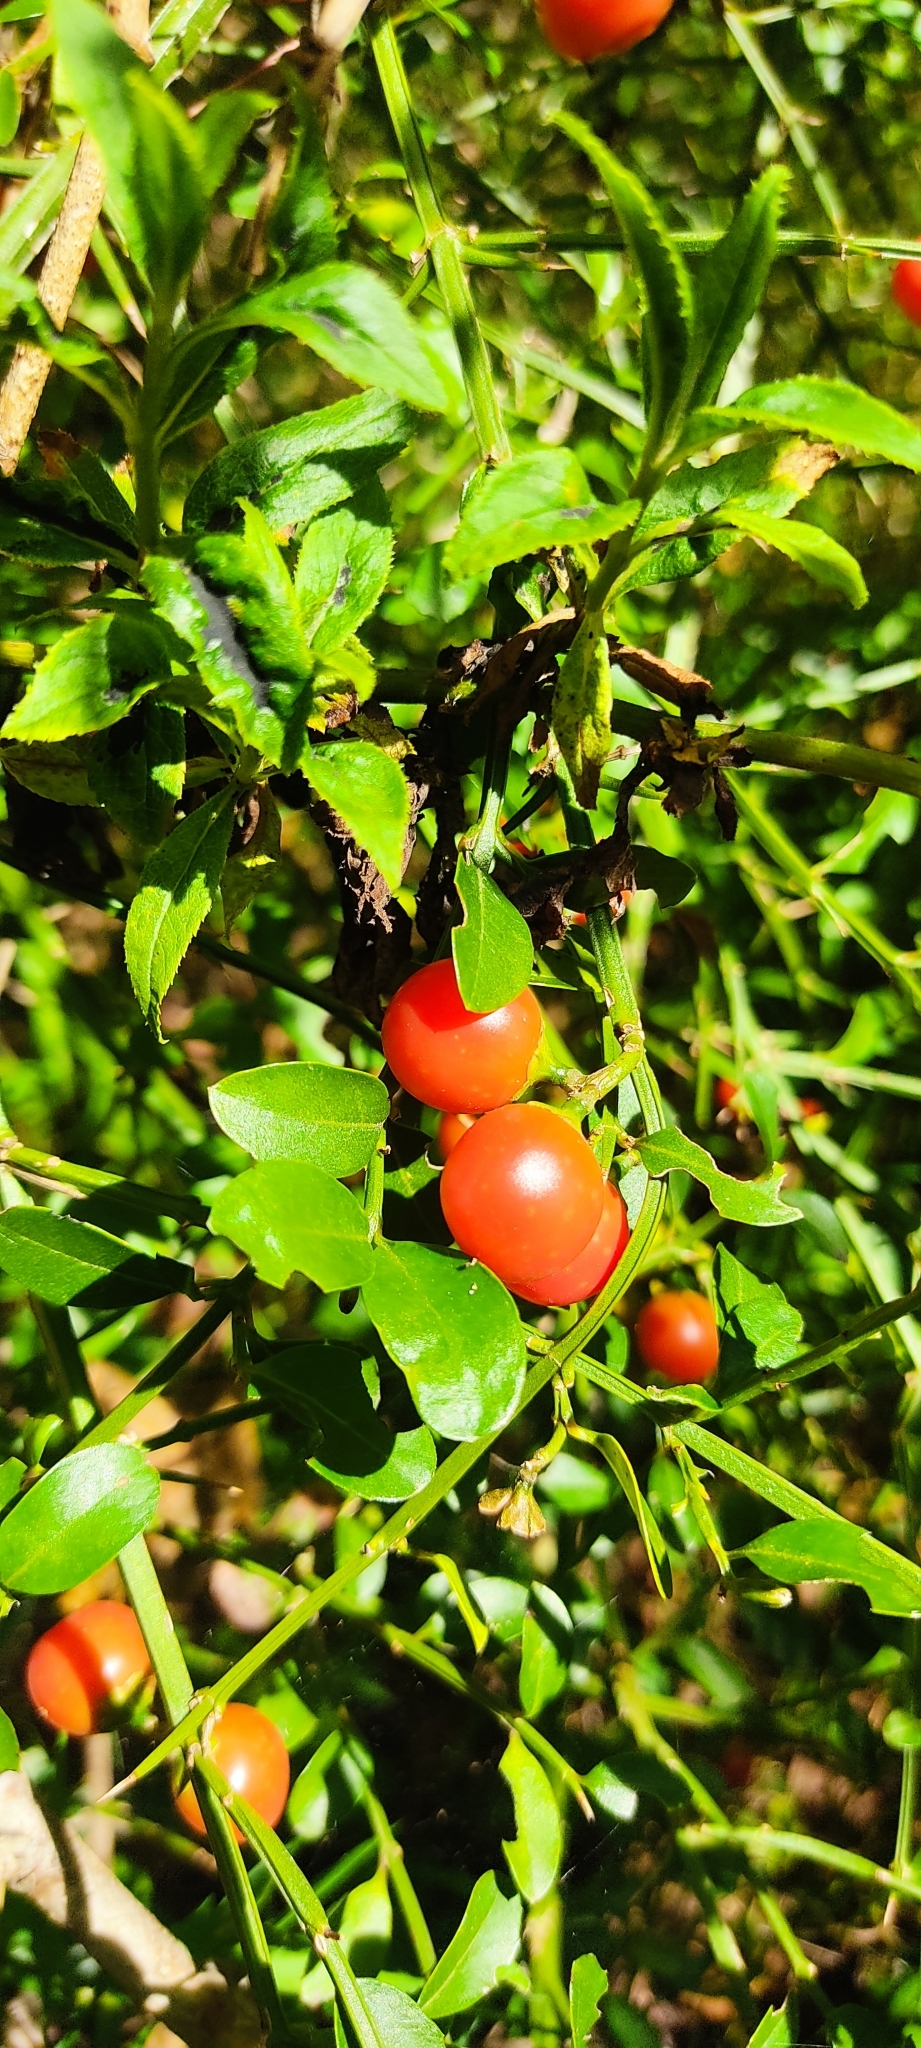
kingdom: Plantae
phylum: Tracheophyta
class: Magnoliopsida
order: Lamiales
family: Verbenaceae
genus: Citharexylum
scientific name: Citharexylum herrerae
